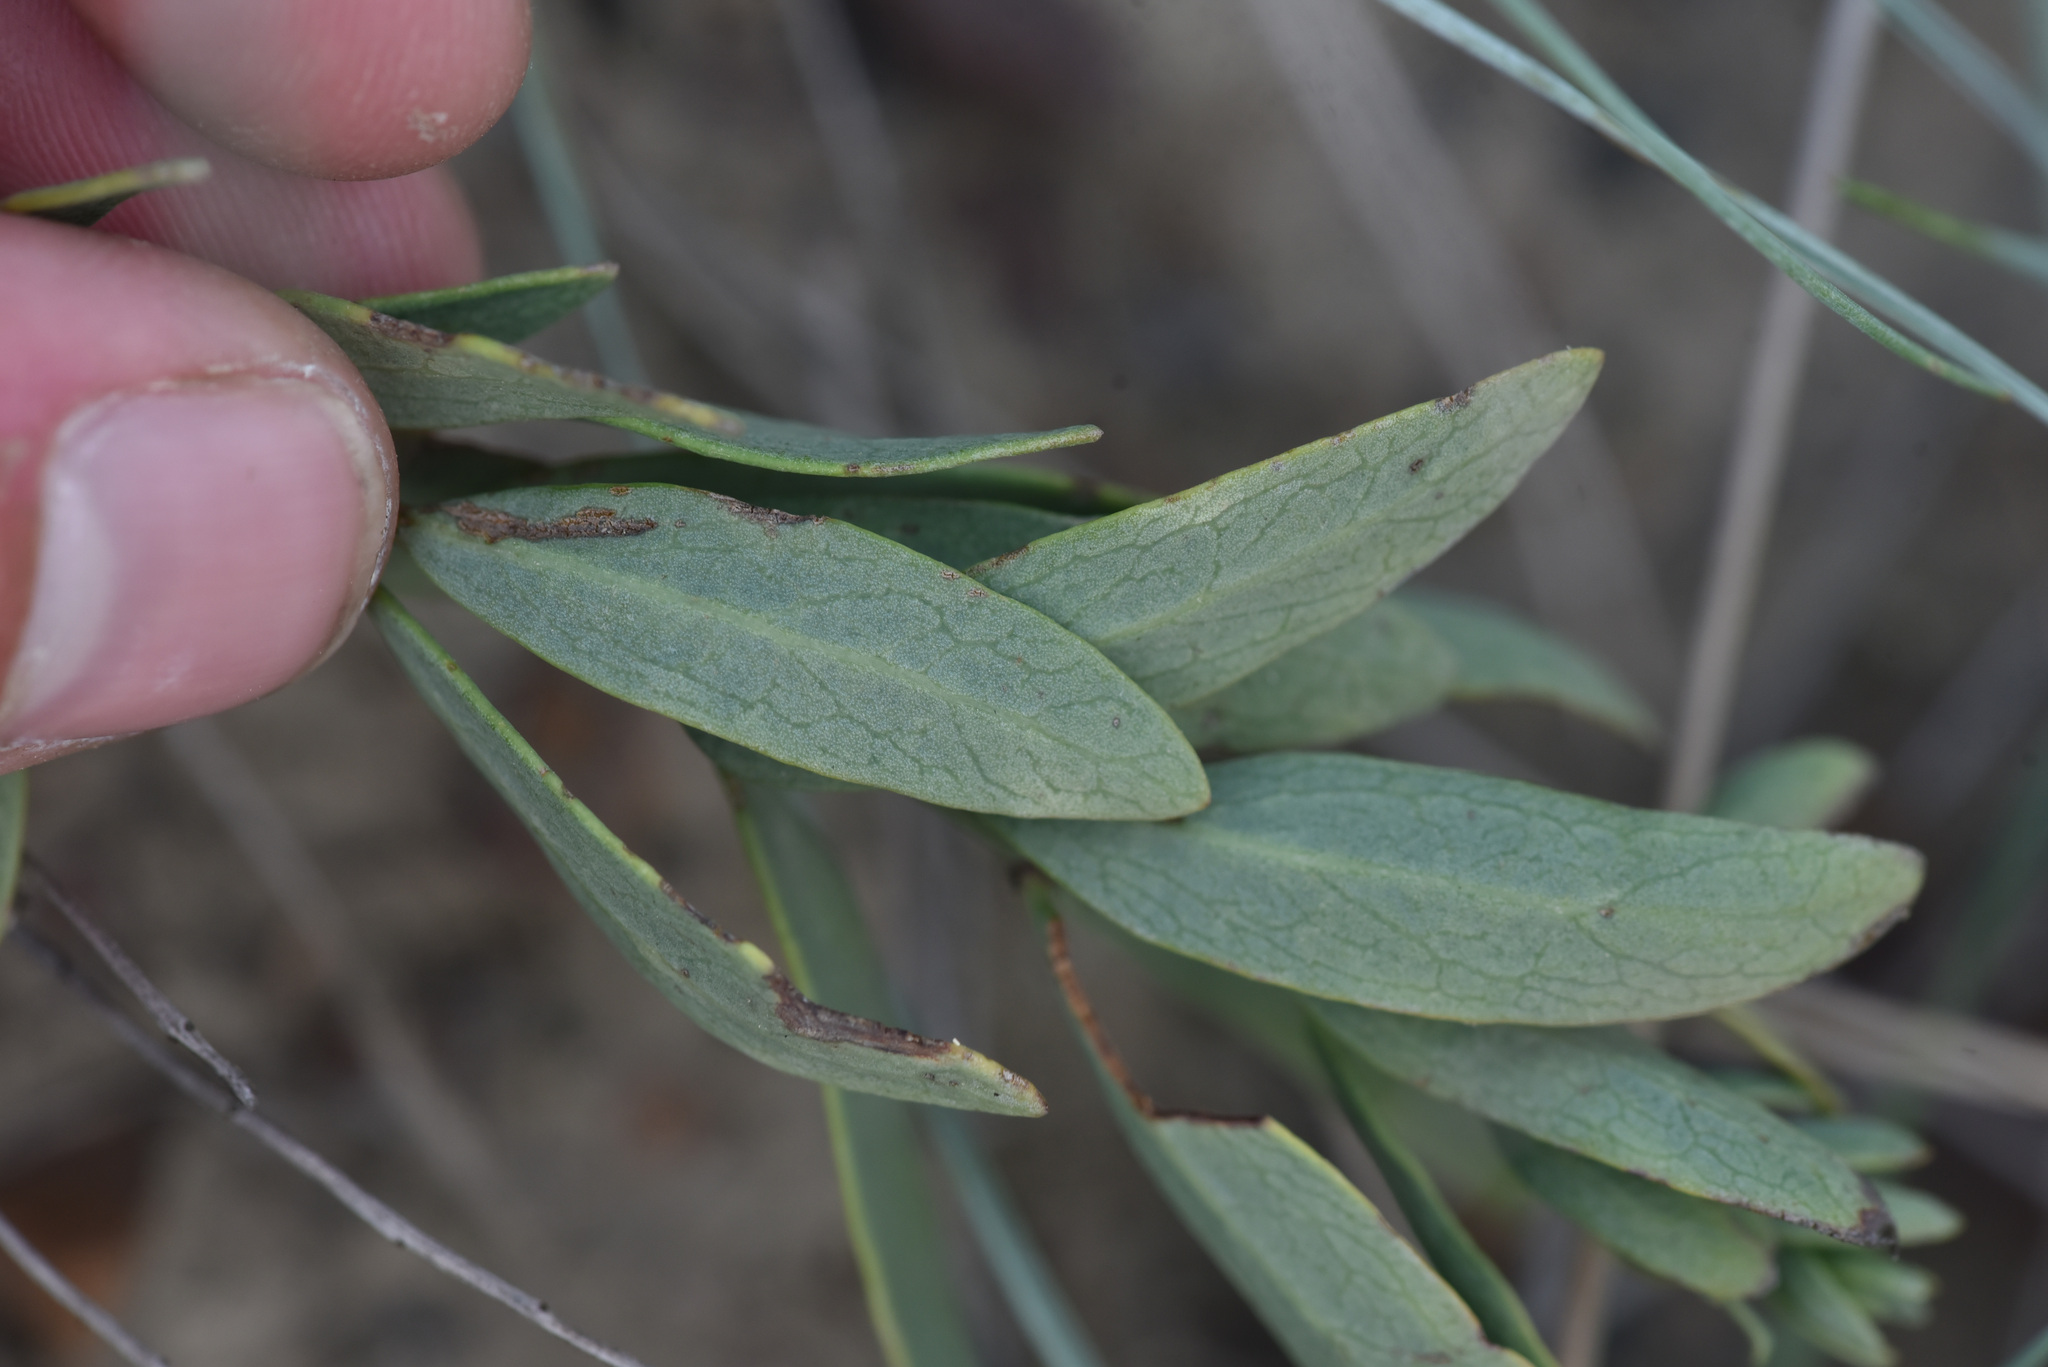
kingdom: Plantae
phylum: Tracheophyta
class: Magnoliopsida
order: Santalales
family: Comandraceae
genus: Comandra
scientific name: Comandra umbellata
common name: Bastard toadflax
